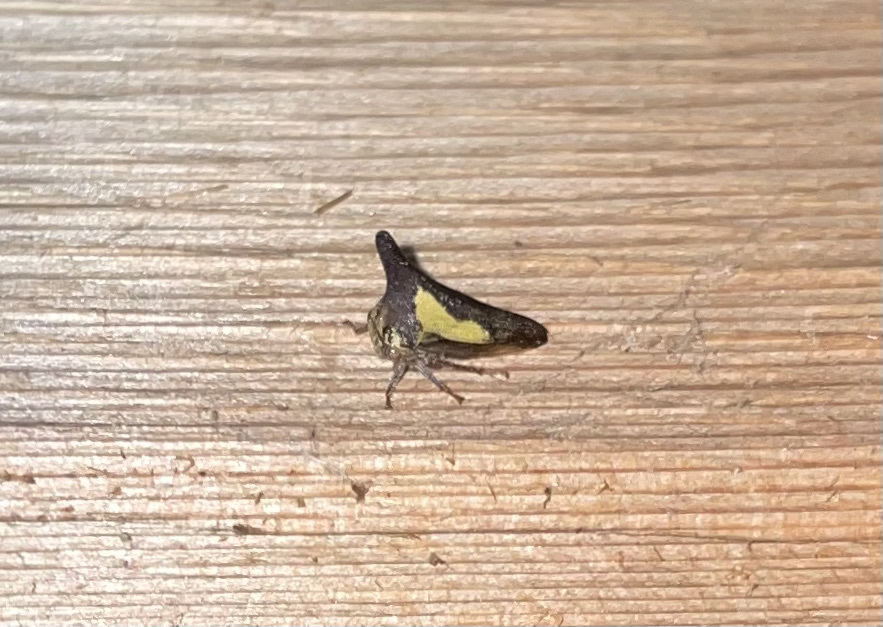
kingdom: Animalia
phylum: Arthropoda
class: Insecta
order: Hemiptera
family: Membracidae
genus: Thelia
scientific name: Thelia bimaculata
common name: Locust treehopper
